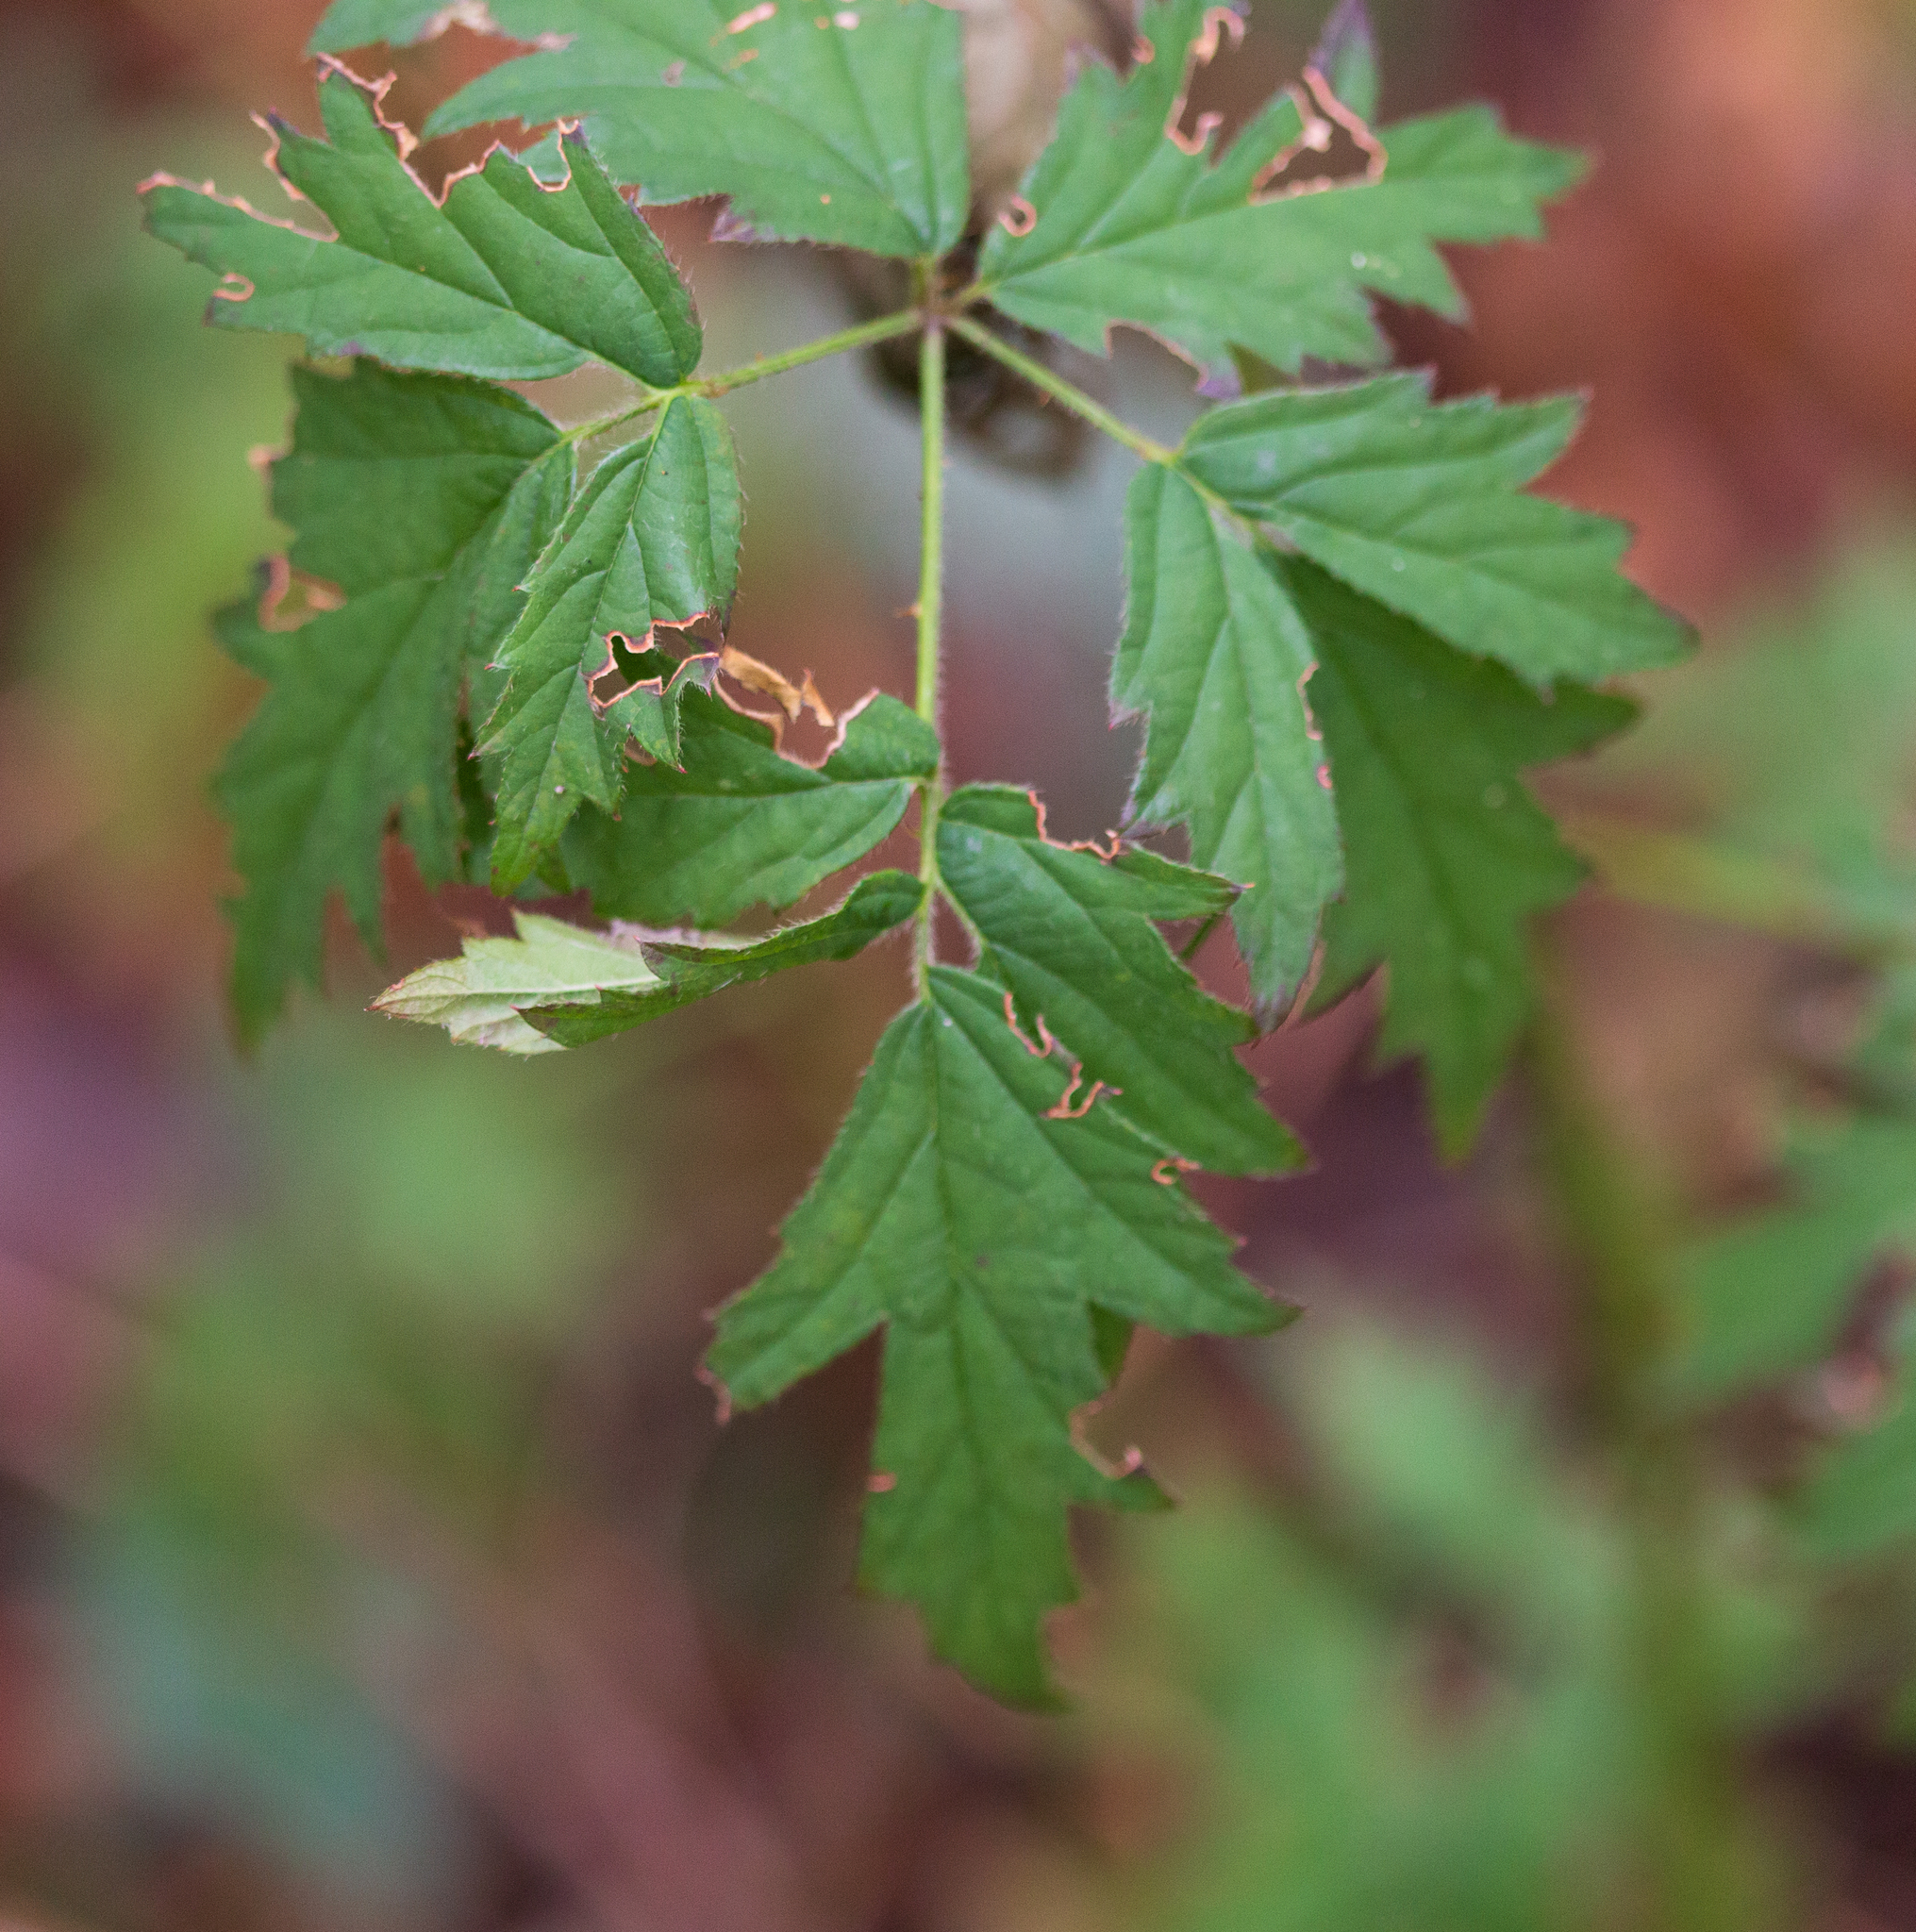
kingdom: Plantae
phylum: Tracheophyta
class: Magnoliopsida
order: Rosales
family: Rosaceae
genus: Rubus
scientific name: Rubus laciniatus
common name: Evergreen blackberry
